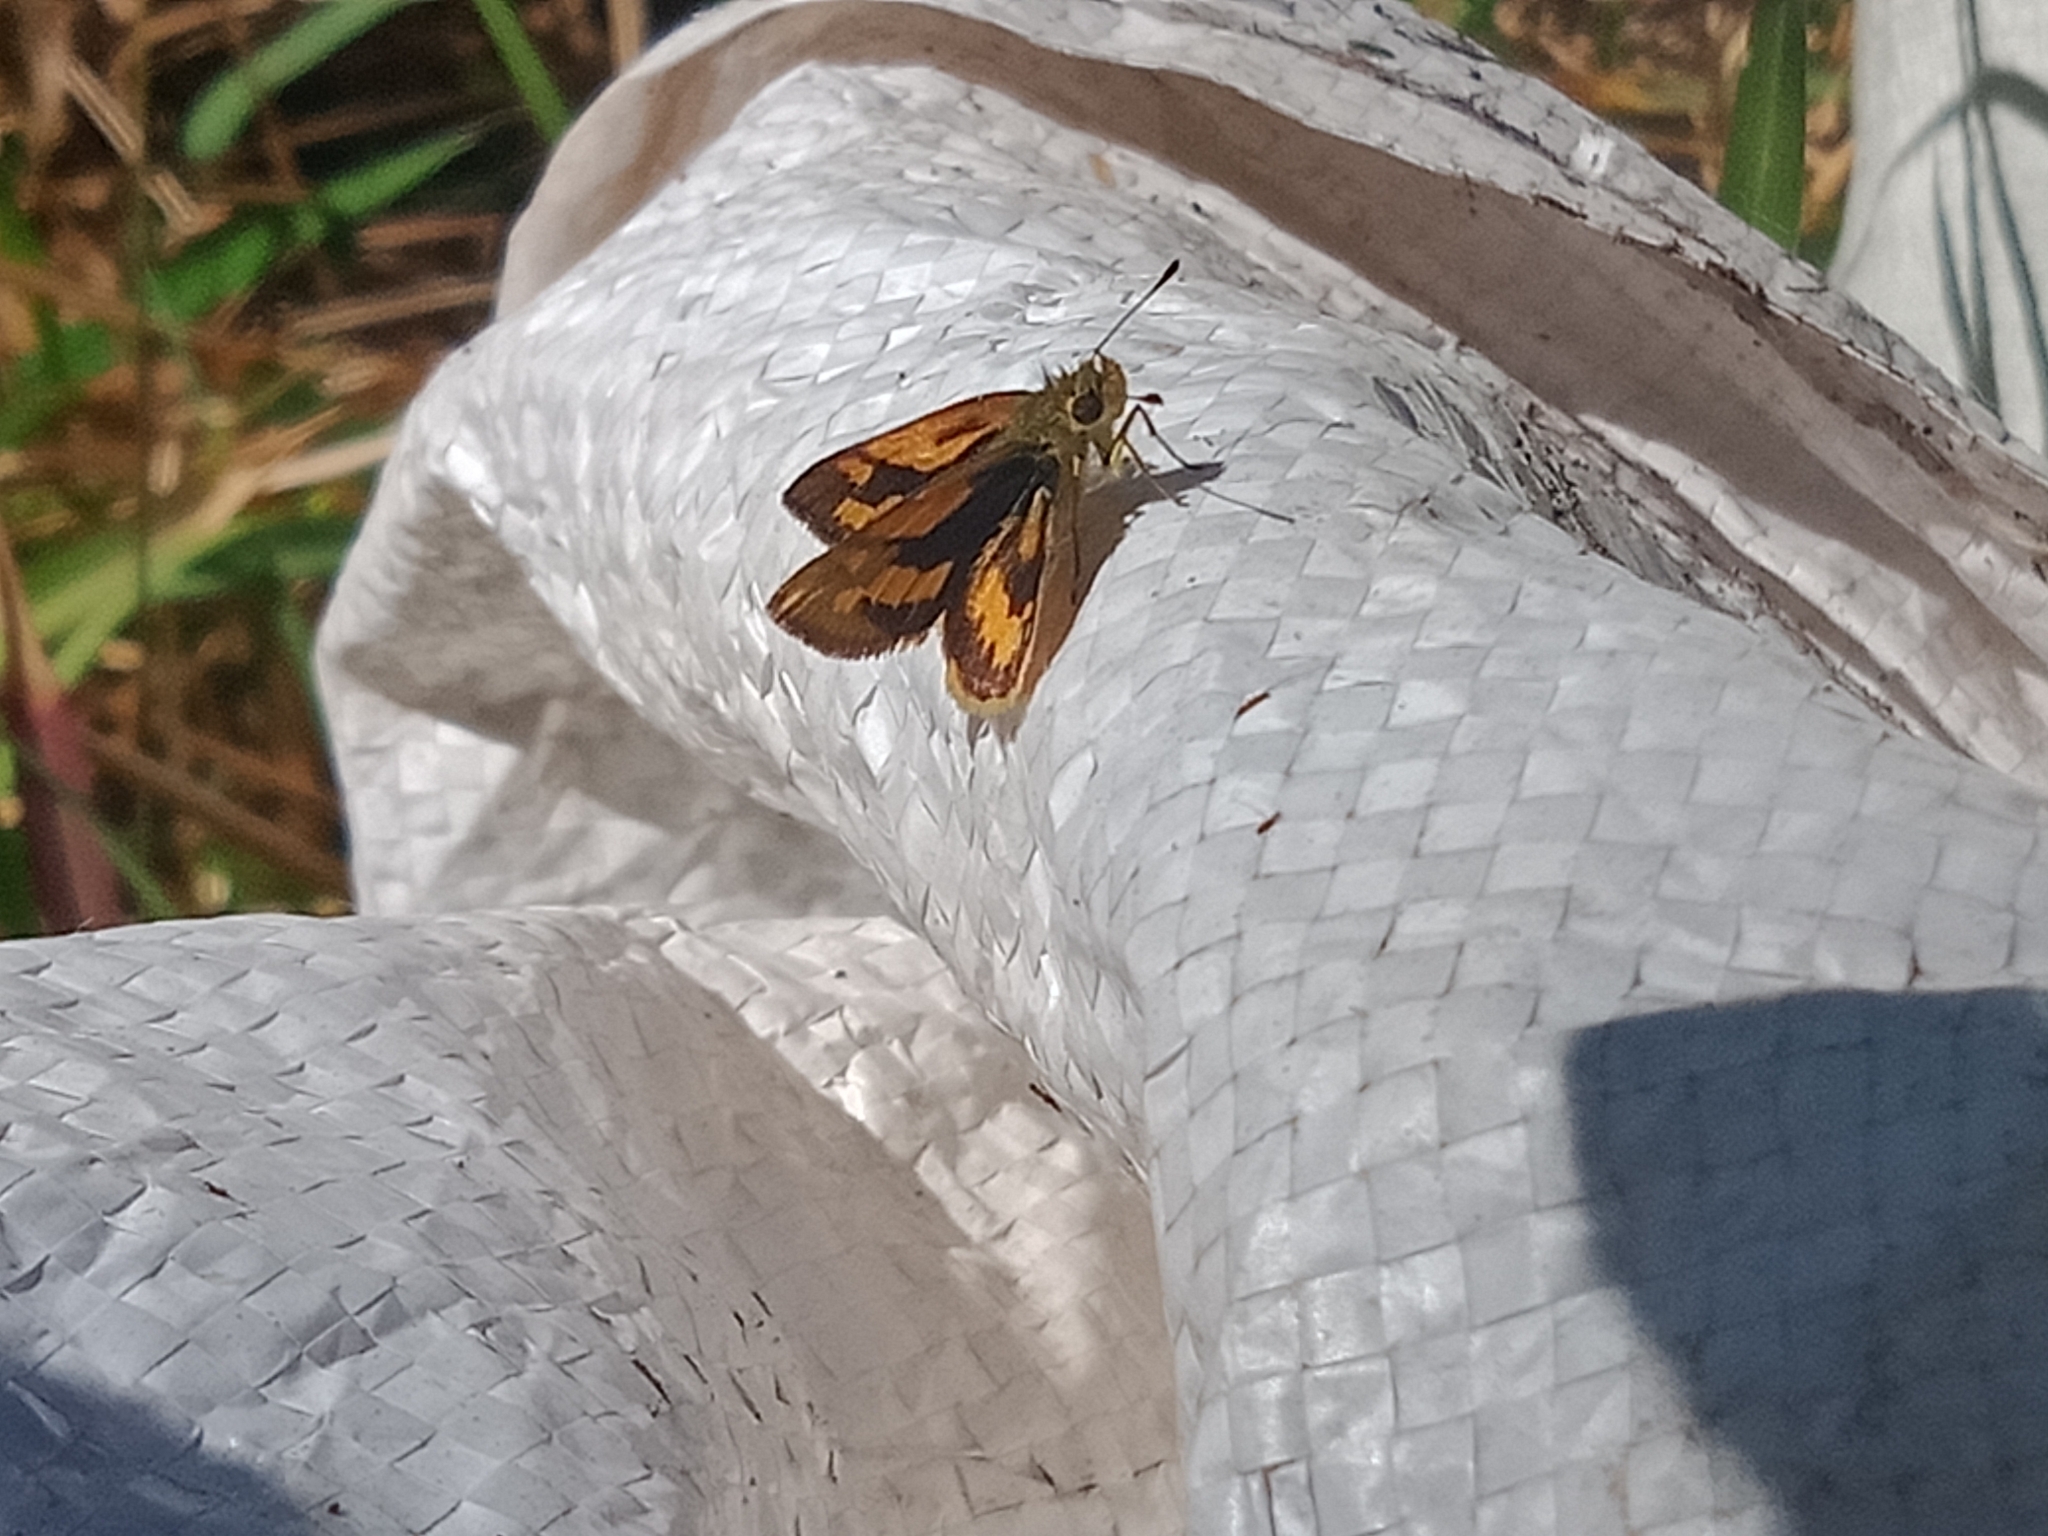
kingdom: Animalia
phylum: Arthropoda
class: Insecta
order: Lepidoptera
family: Hesperiidae
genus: Ocybadistes
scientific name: Ocybadistes walkeri
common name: Yellow-banded dart
